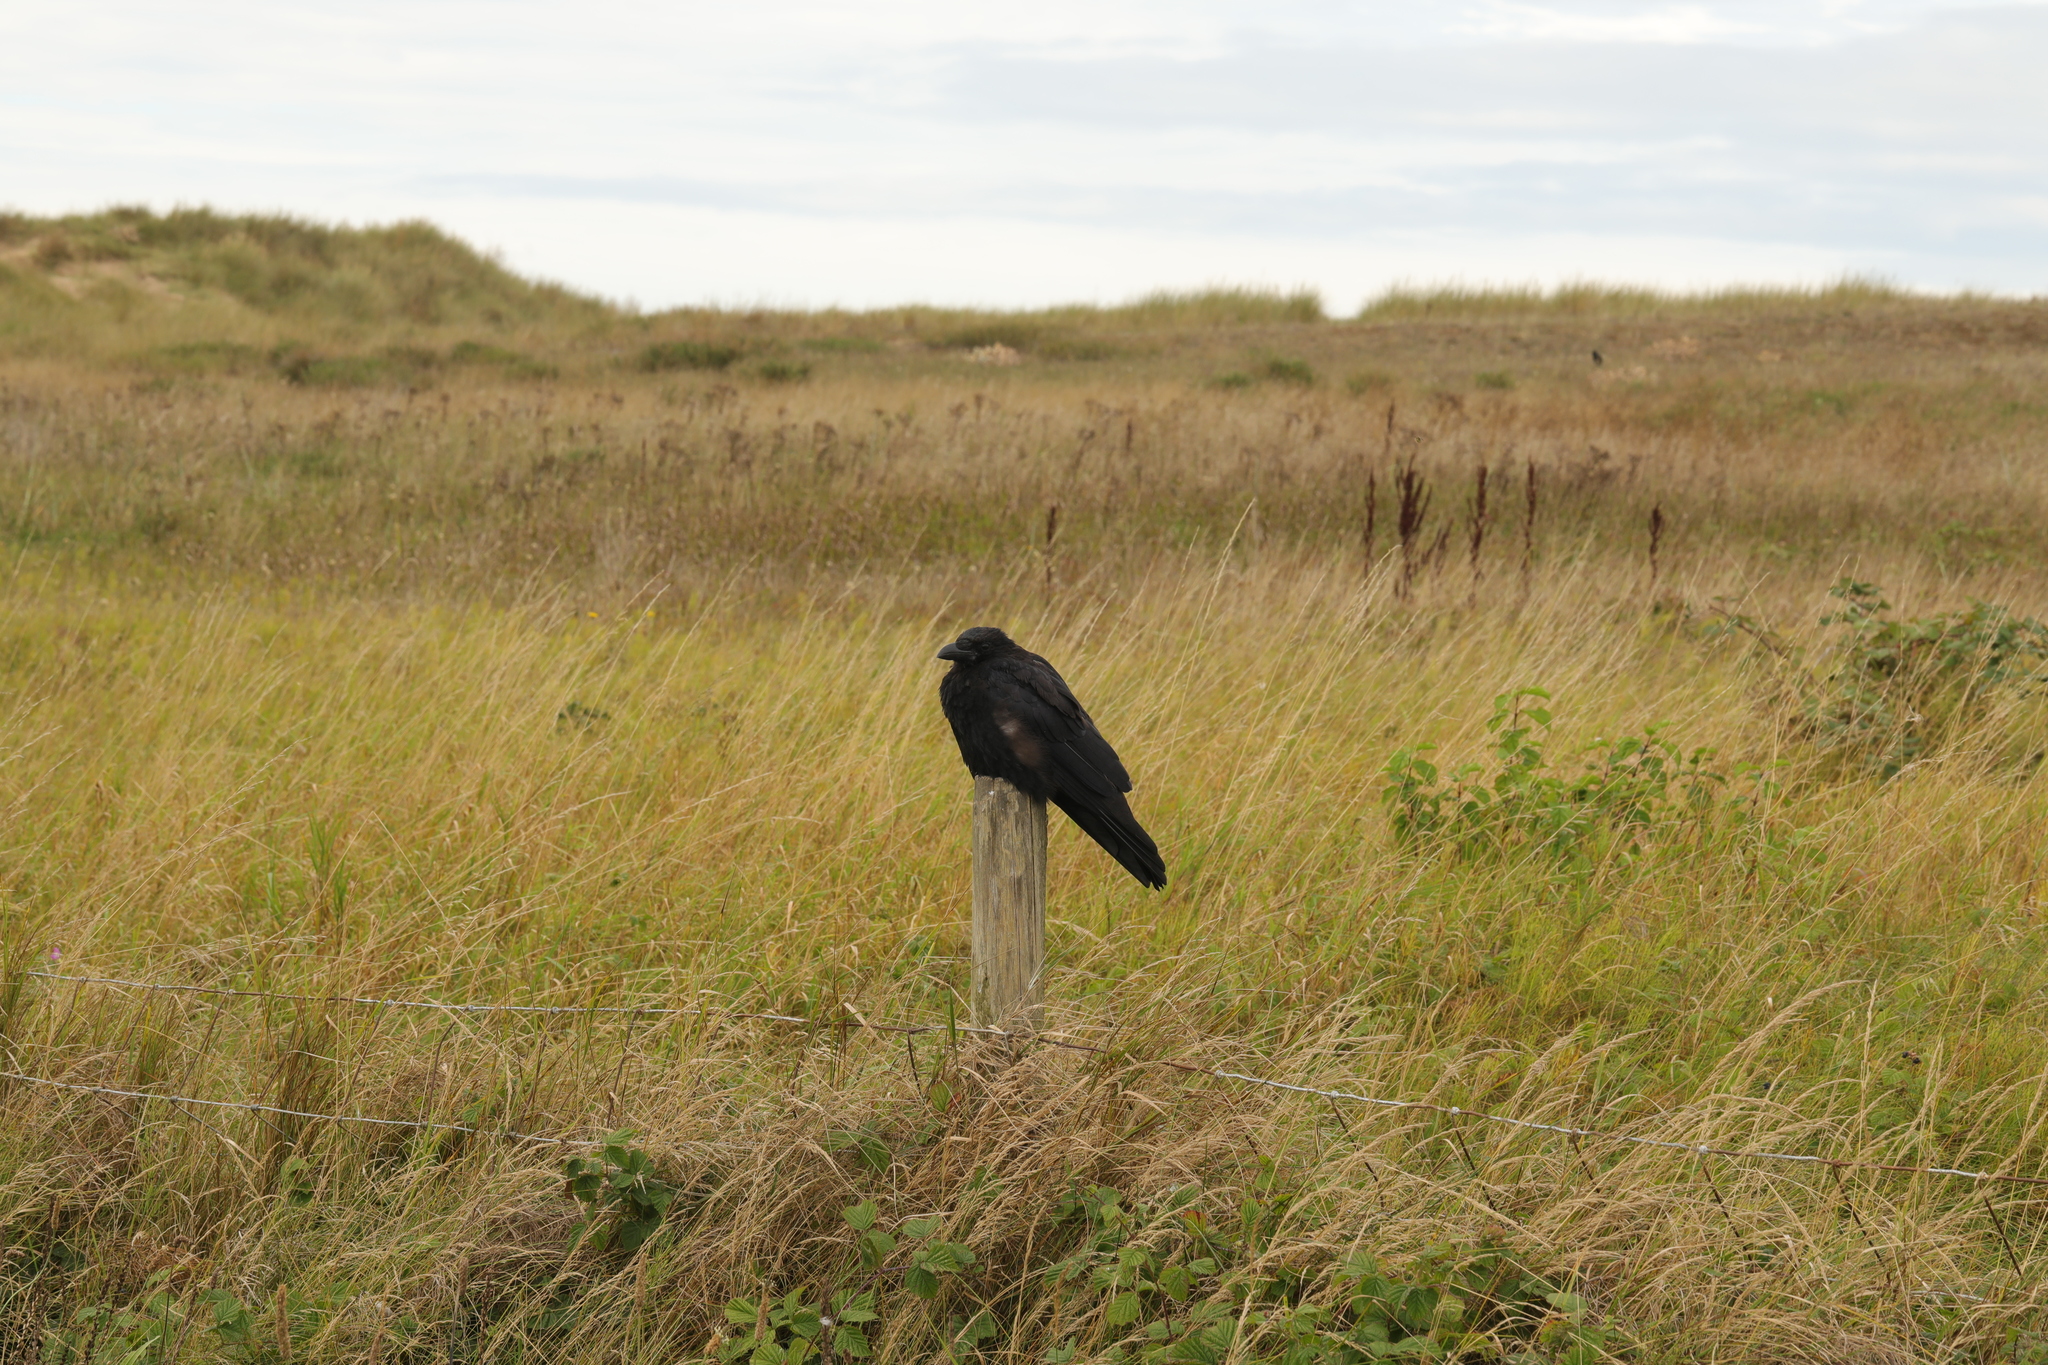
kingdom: Animalia
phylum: Chordata
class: Aves
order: Passeriformes
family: Corvidae
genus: Corvus
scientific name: Corvus corone
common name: Carrion crow
